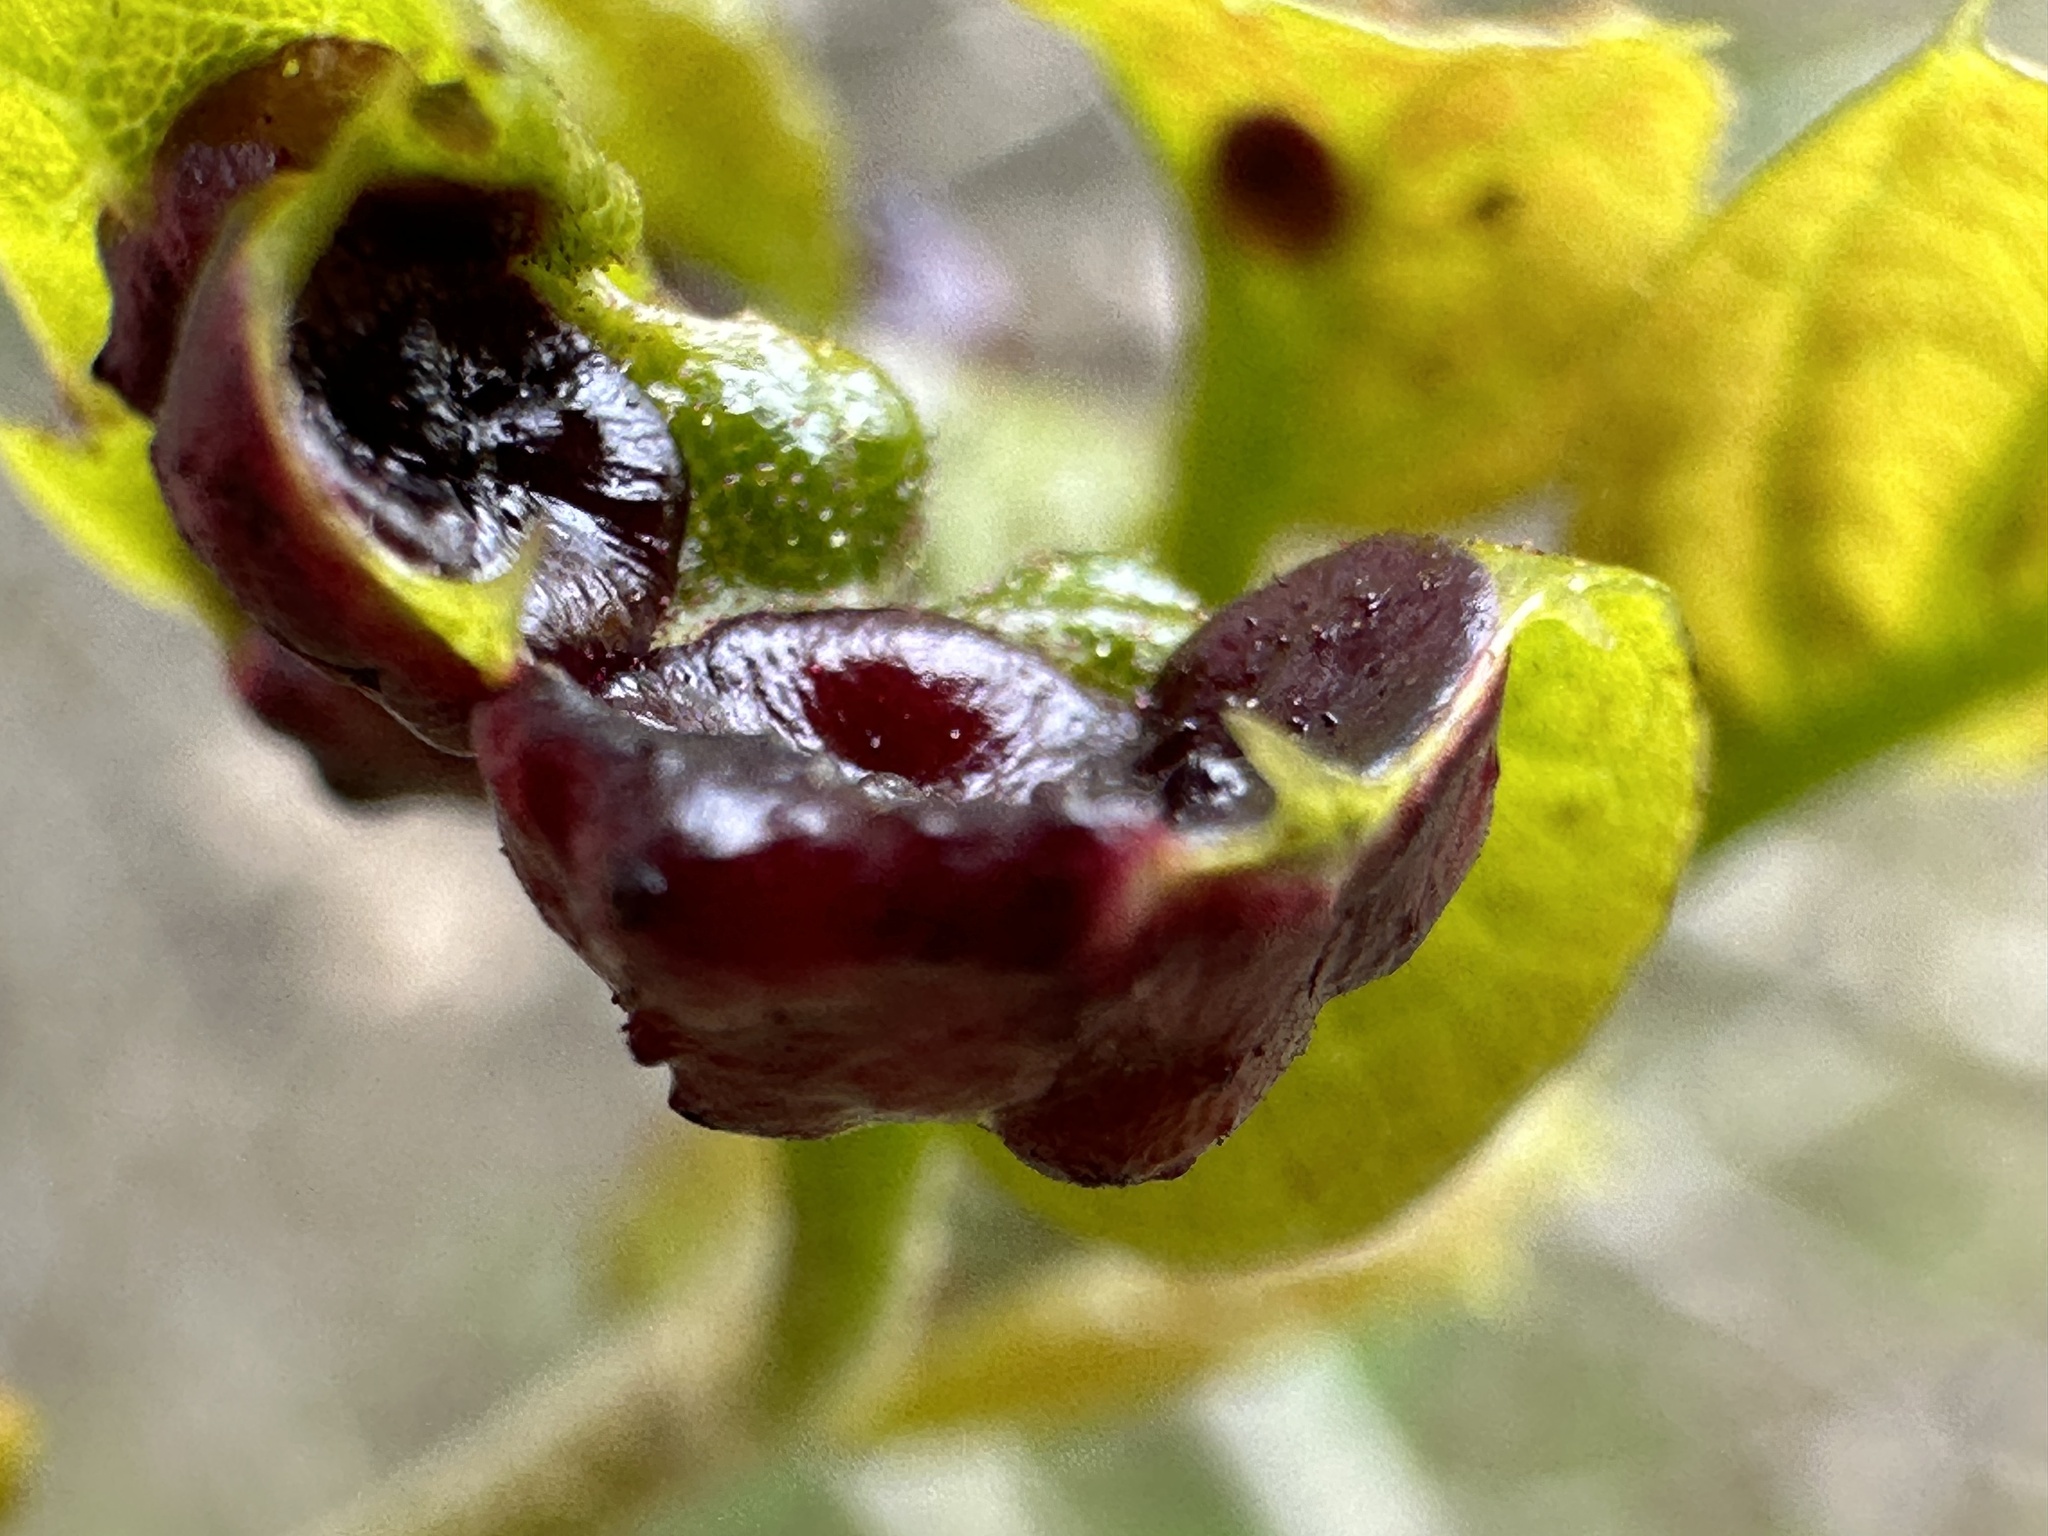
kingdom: Animalia
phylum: Arthropoda
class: Insecta
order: Hymenoptera
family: Cynipidae
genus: Dryocosmus
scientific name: Dryocosmus
